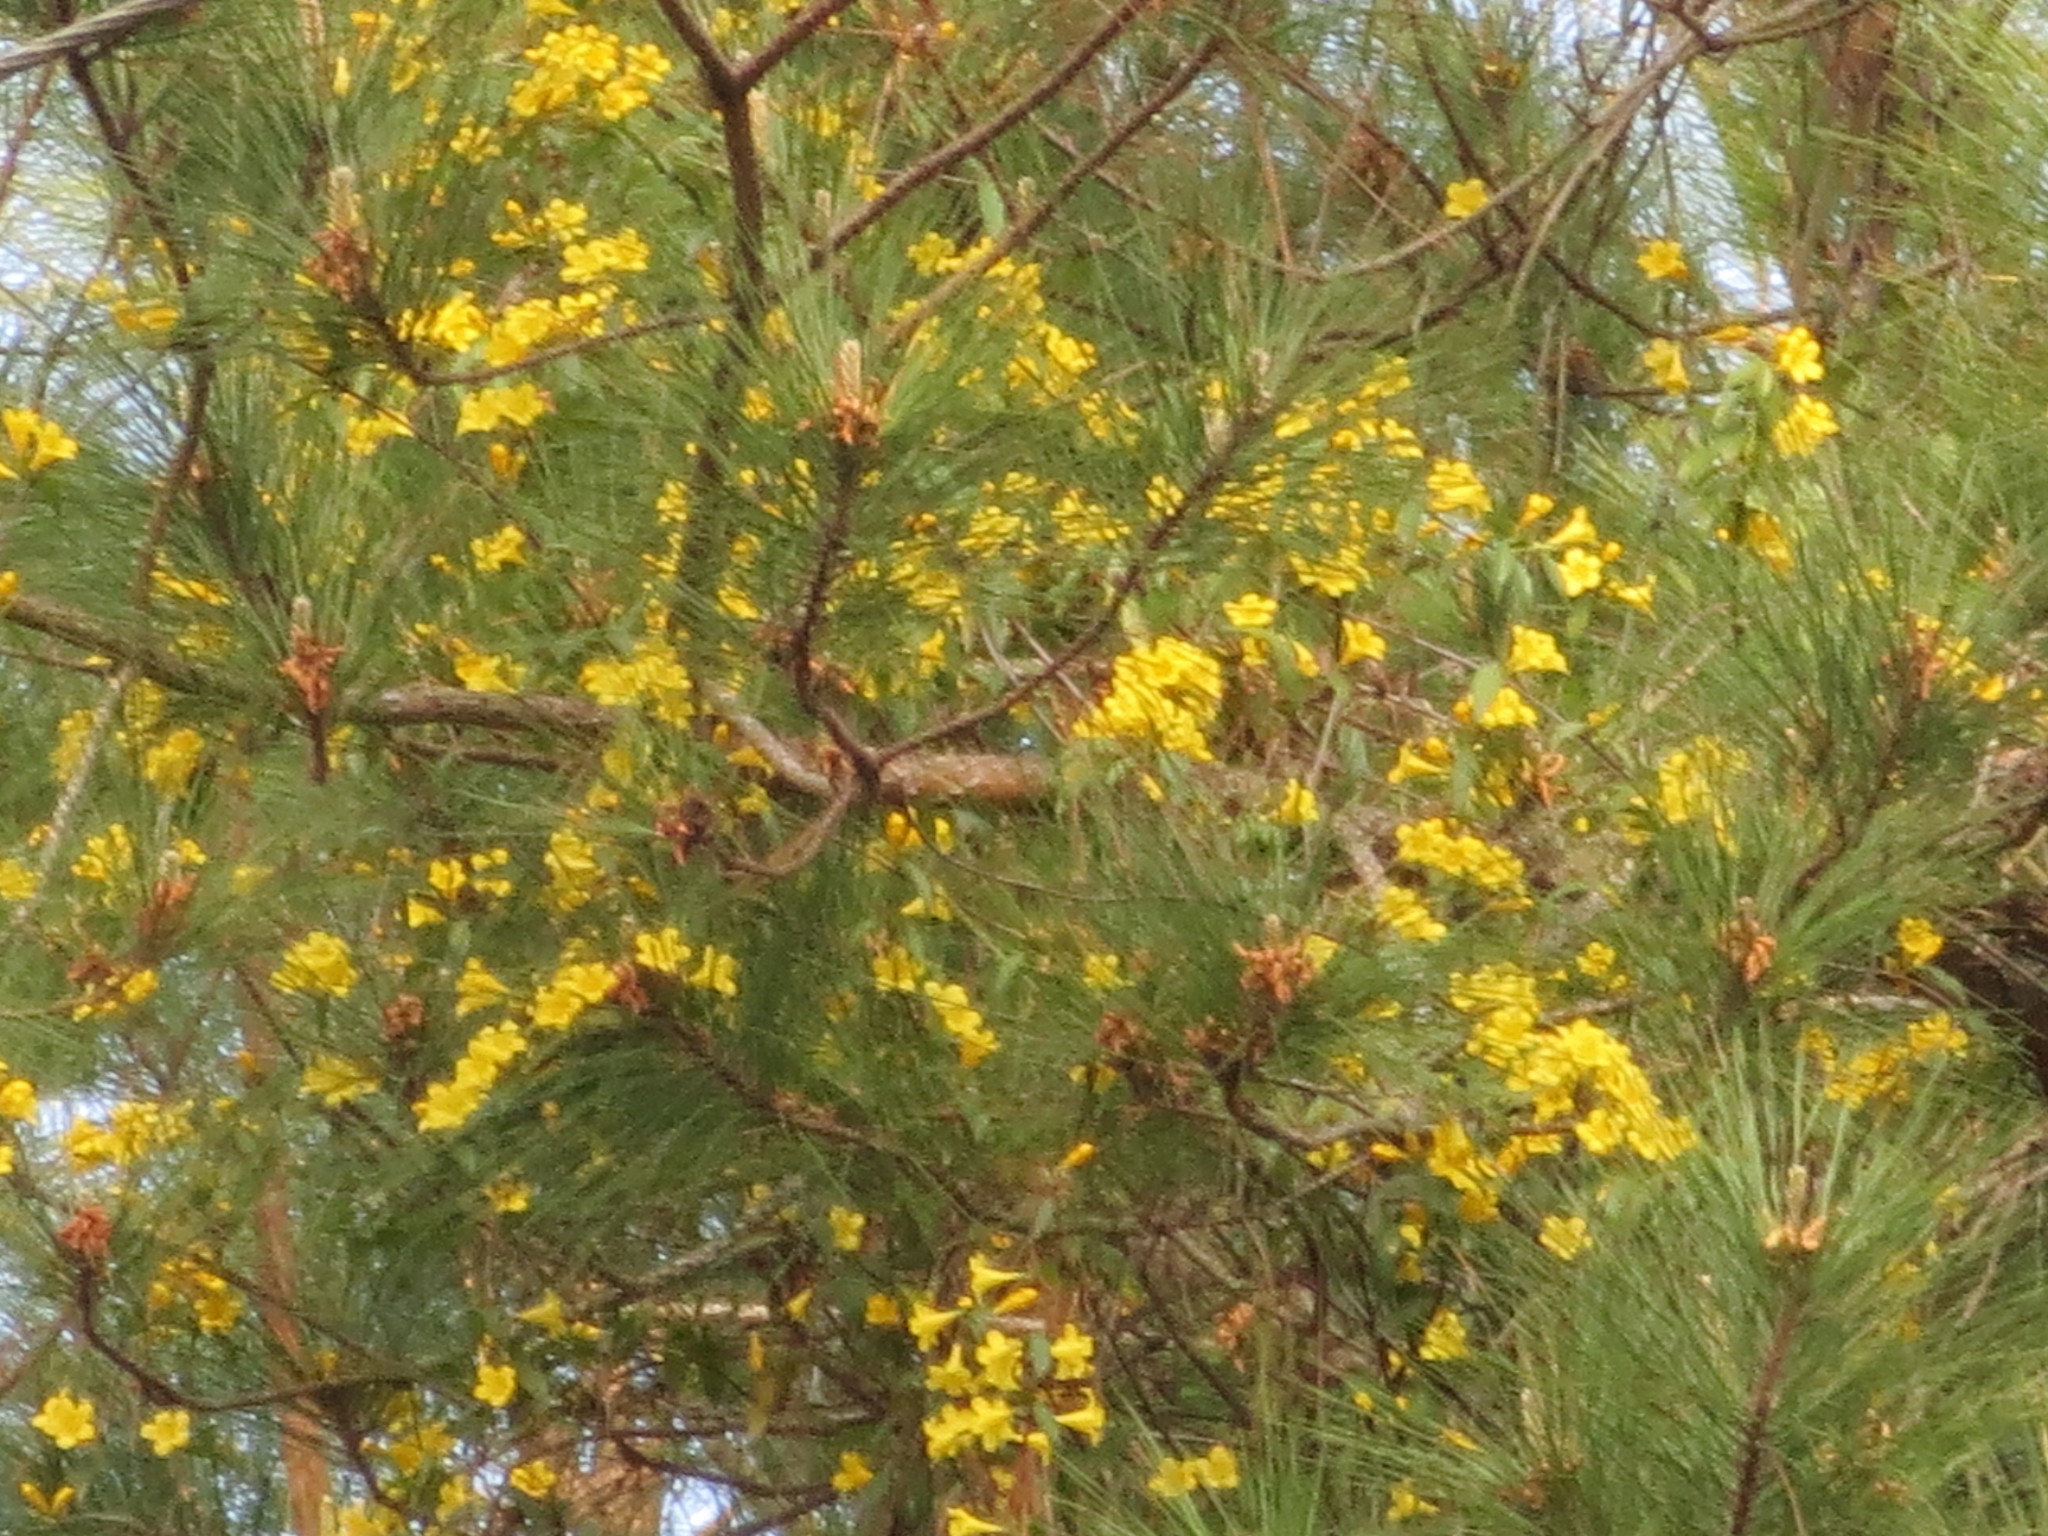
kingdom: Plantae
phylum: Tracheophyta
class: Magnoliopsida
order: Gentianales
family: Gelsemiaceae
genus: Gelsemium
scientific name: Gelsemium sempervirens
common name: Carolina-jasmine
